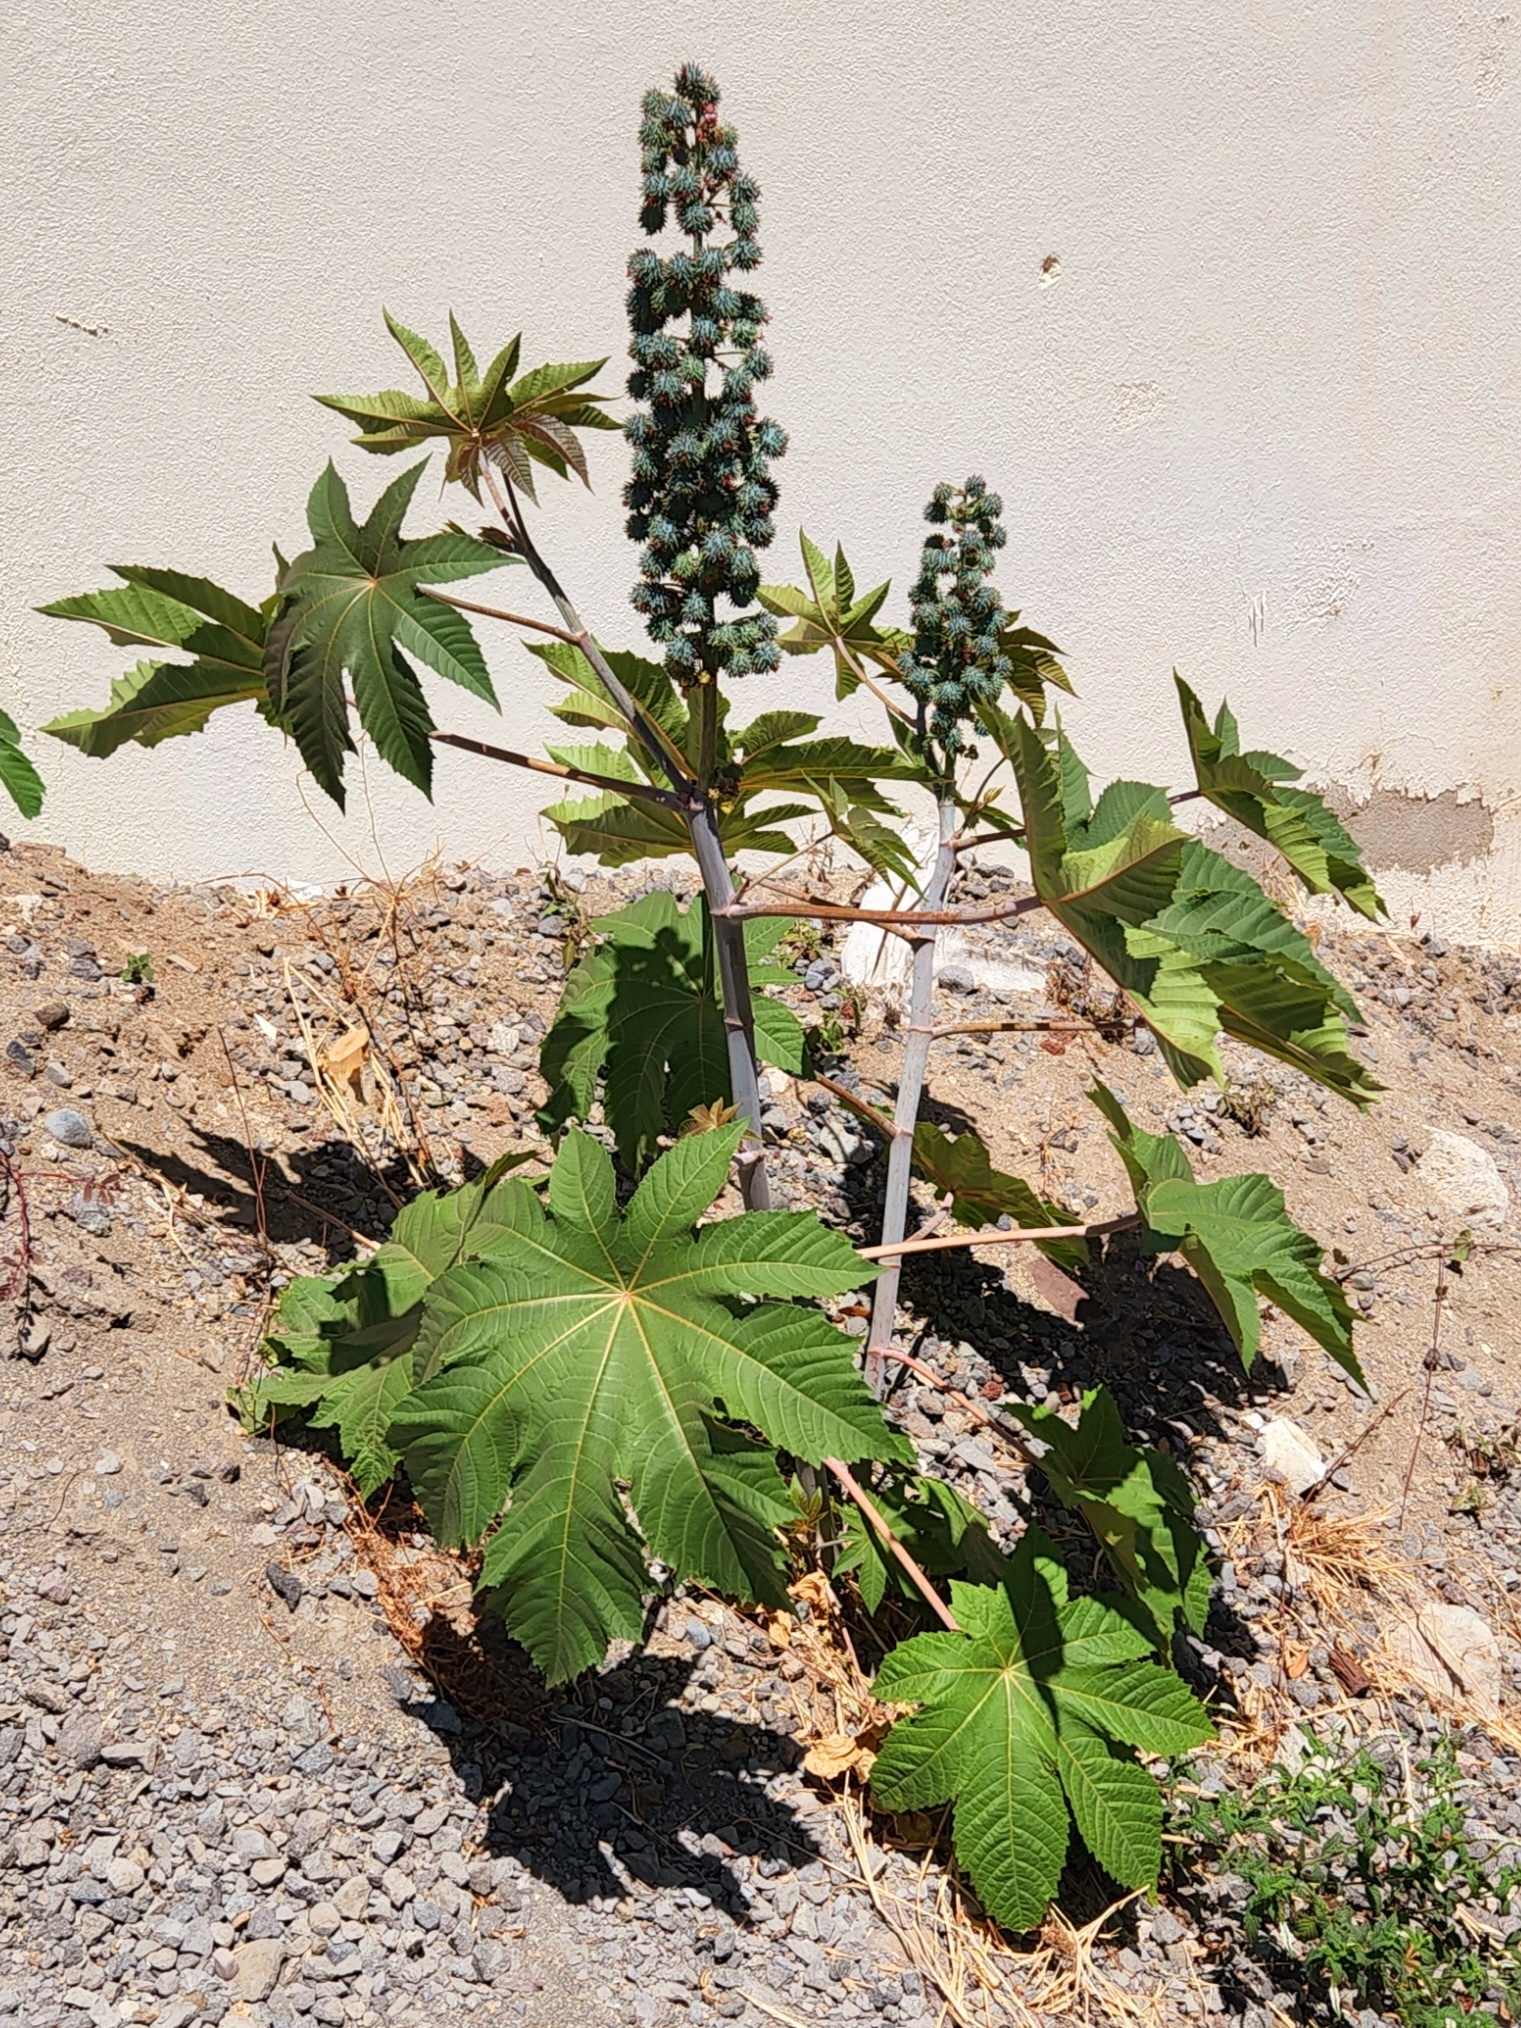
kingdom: Plantae
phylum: Tracheophyta
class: Magnoliopsida
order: Malpighiales
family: Euphorbiaceae
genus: Ricinus
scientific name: Ricinus communis
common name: Castor-oil-plant
